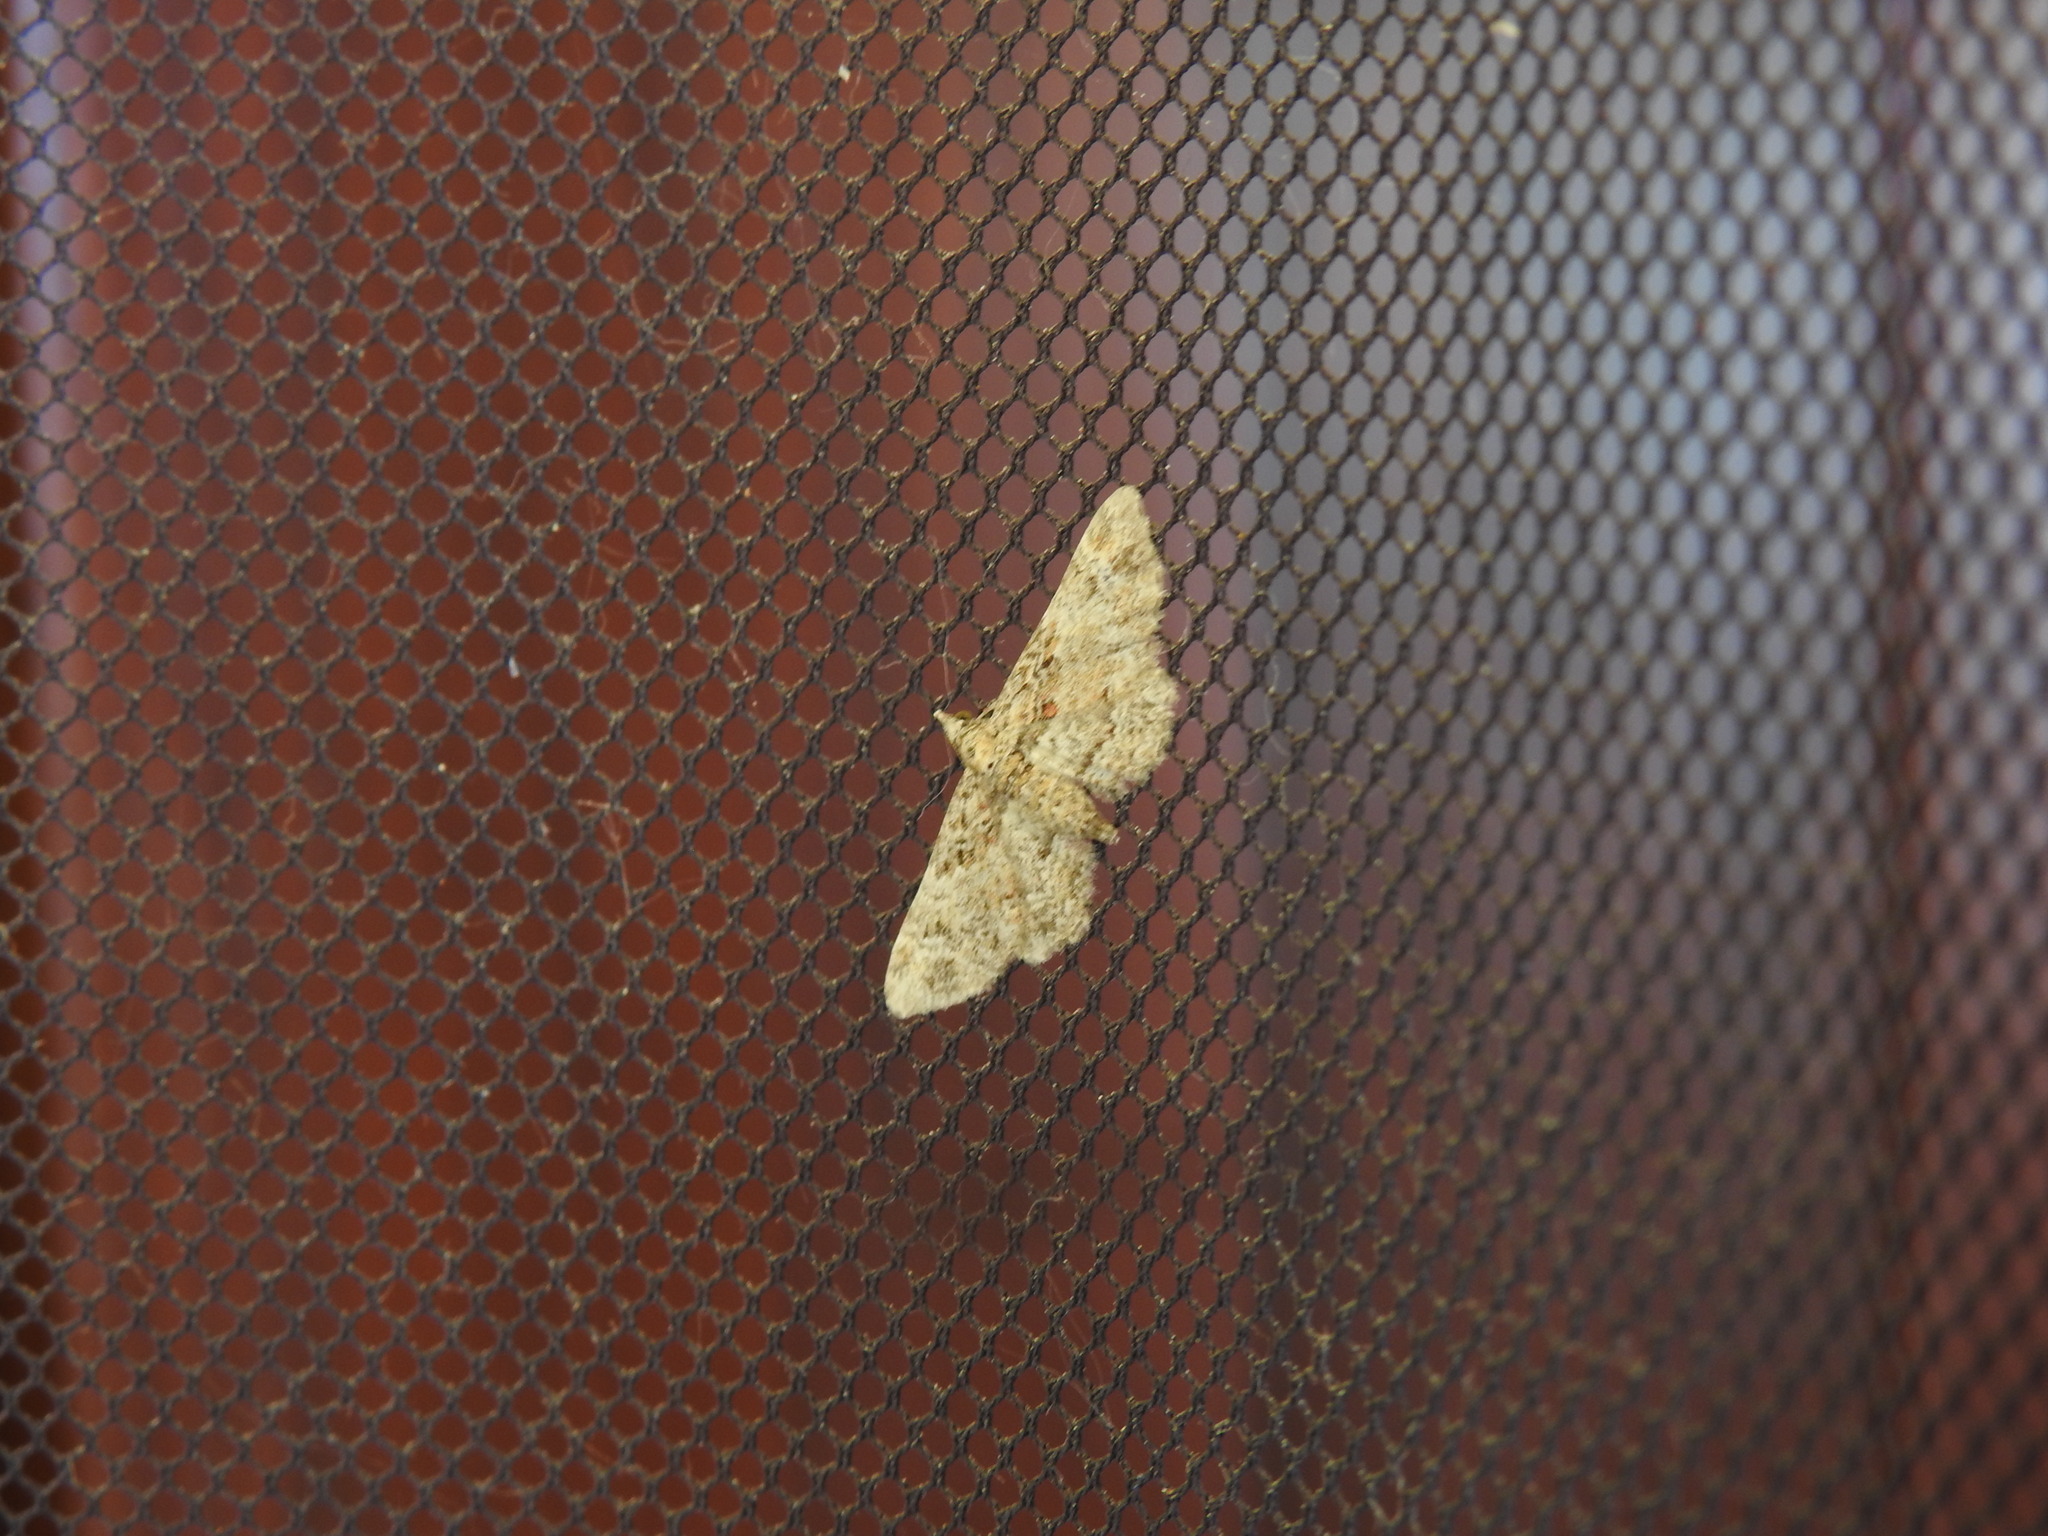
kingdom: Animalia
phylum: Arthropoda
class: Insecta
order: Lepidoptera
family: Geometridae
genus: Gymnoscelis
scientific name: Gymnoscelis rufifasciata
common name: Double-striped pug
